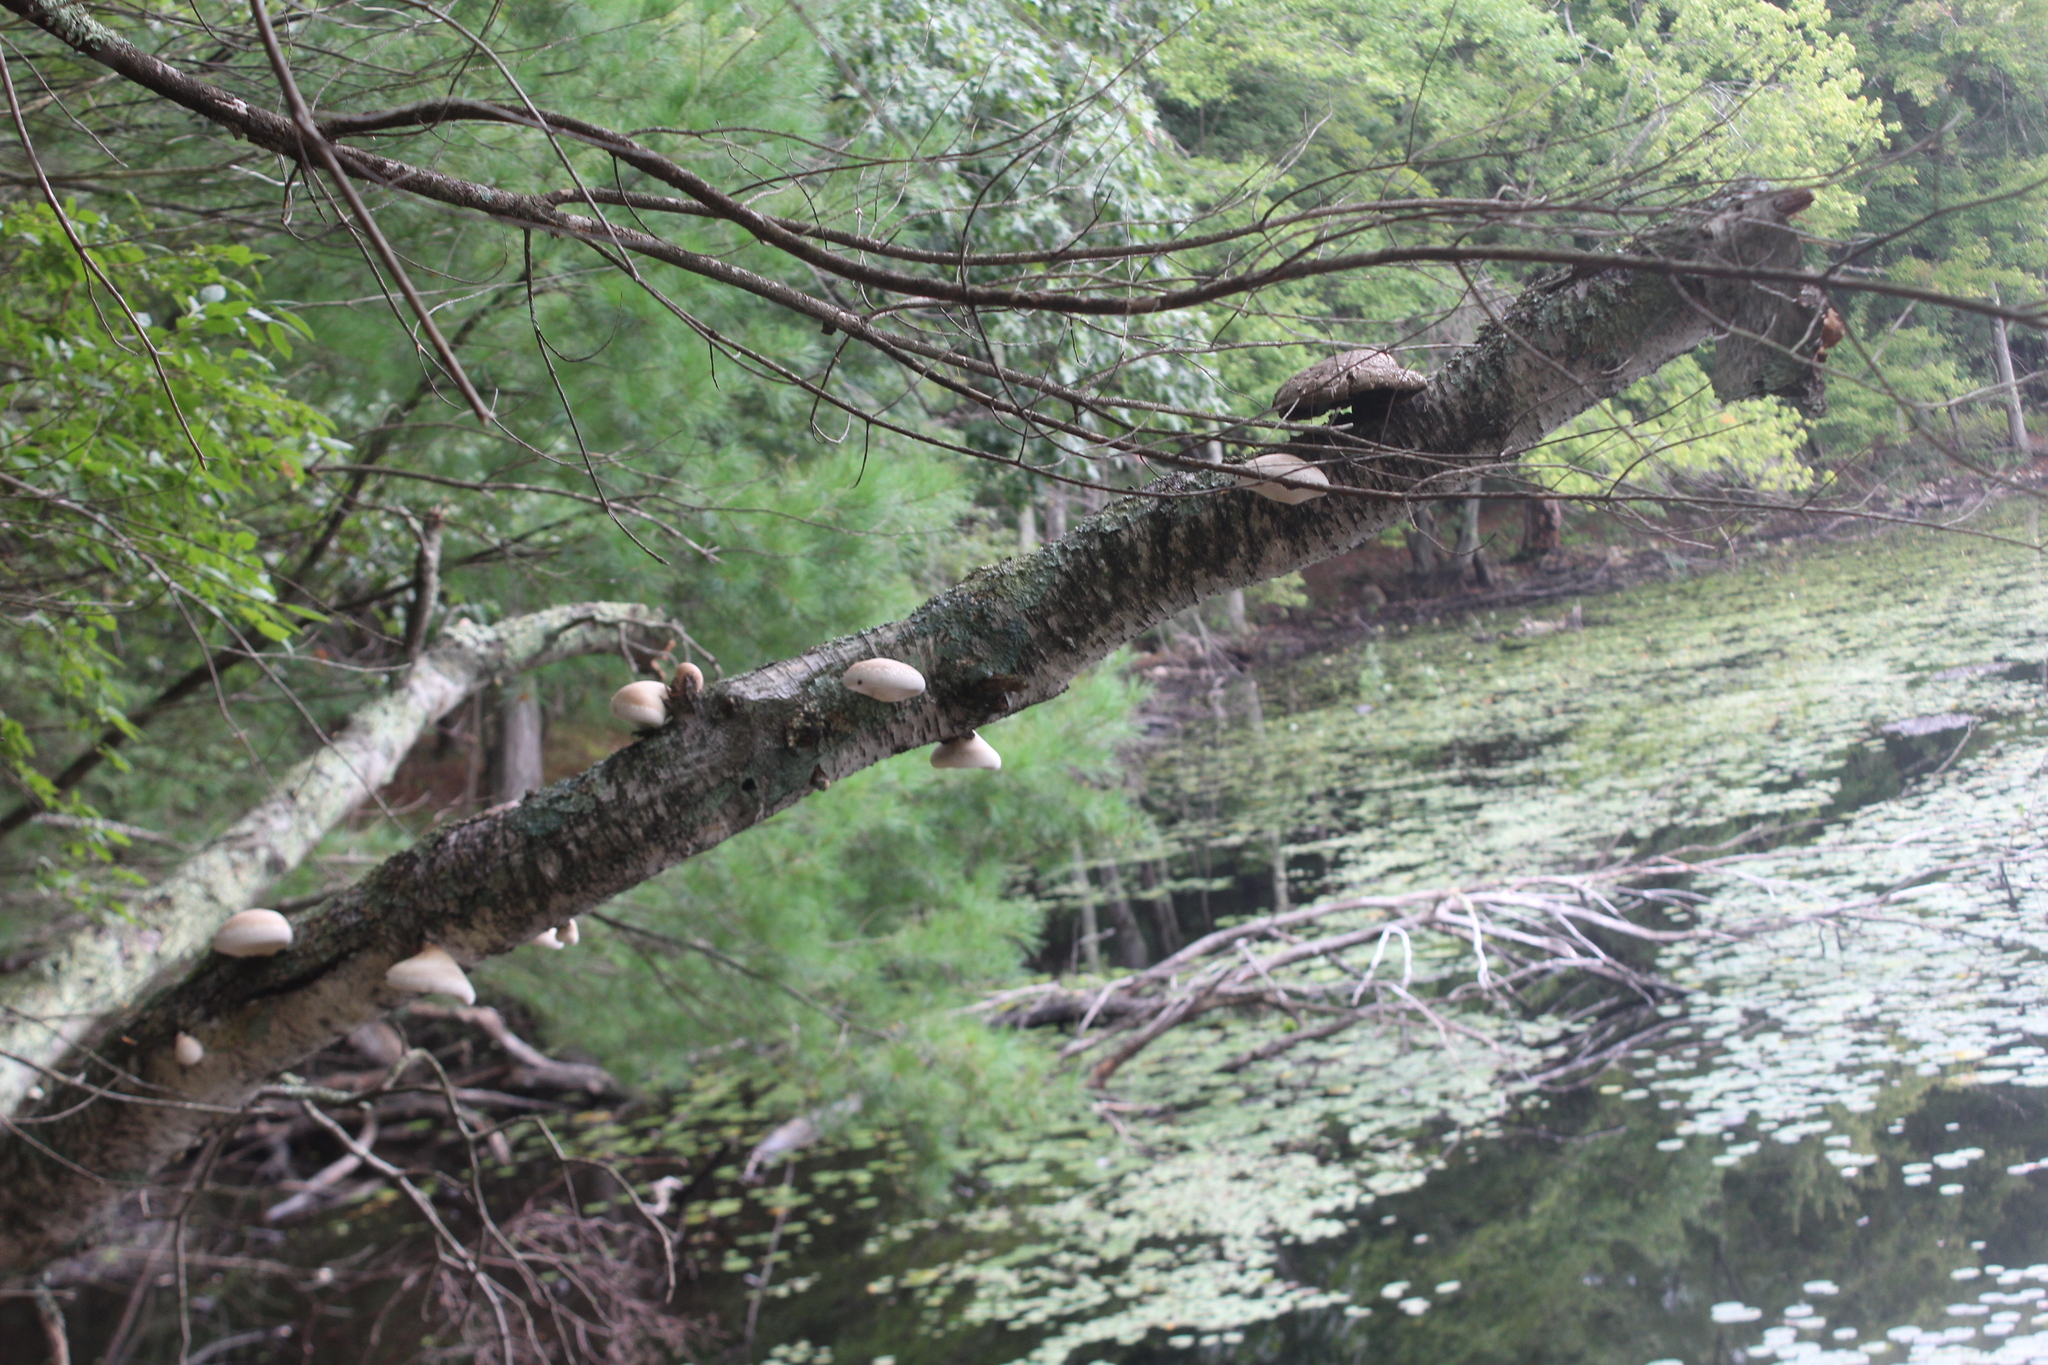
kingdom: Fungi
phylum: Basidiomycota
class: Agaricomycetes
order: Polyporales
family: Fomitopsidaceae
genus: Fomitopsis
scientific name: Fomitopsis betulina
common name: Birch polypore
